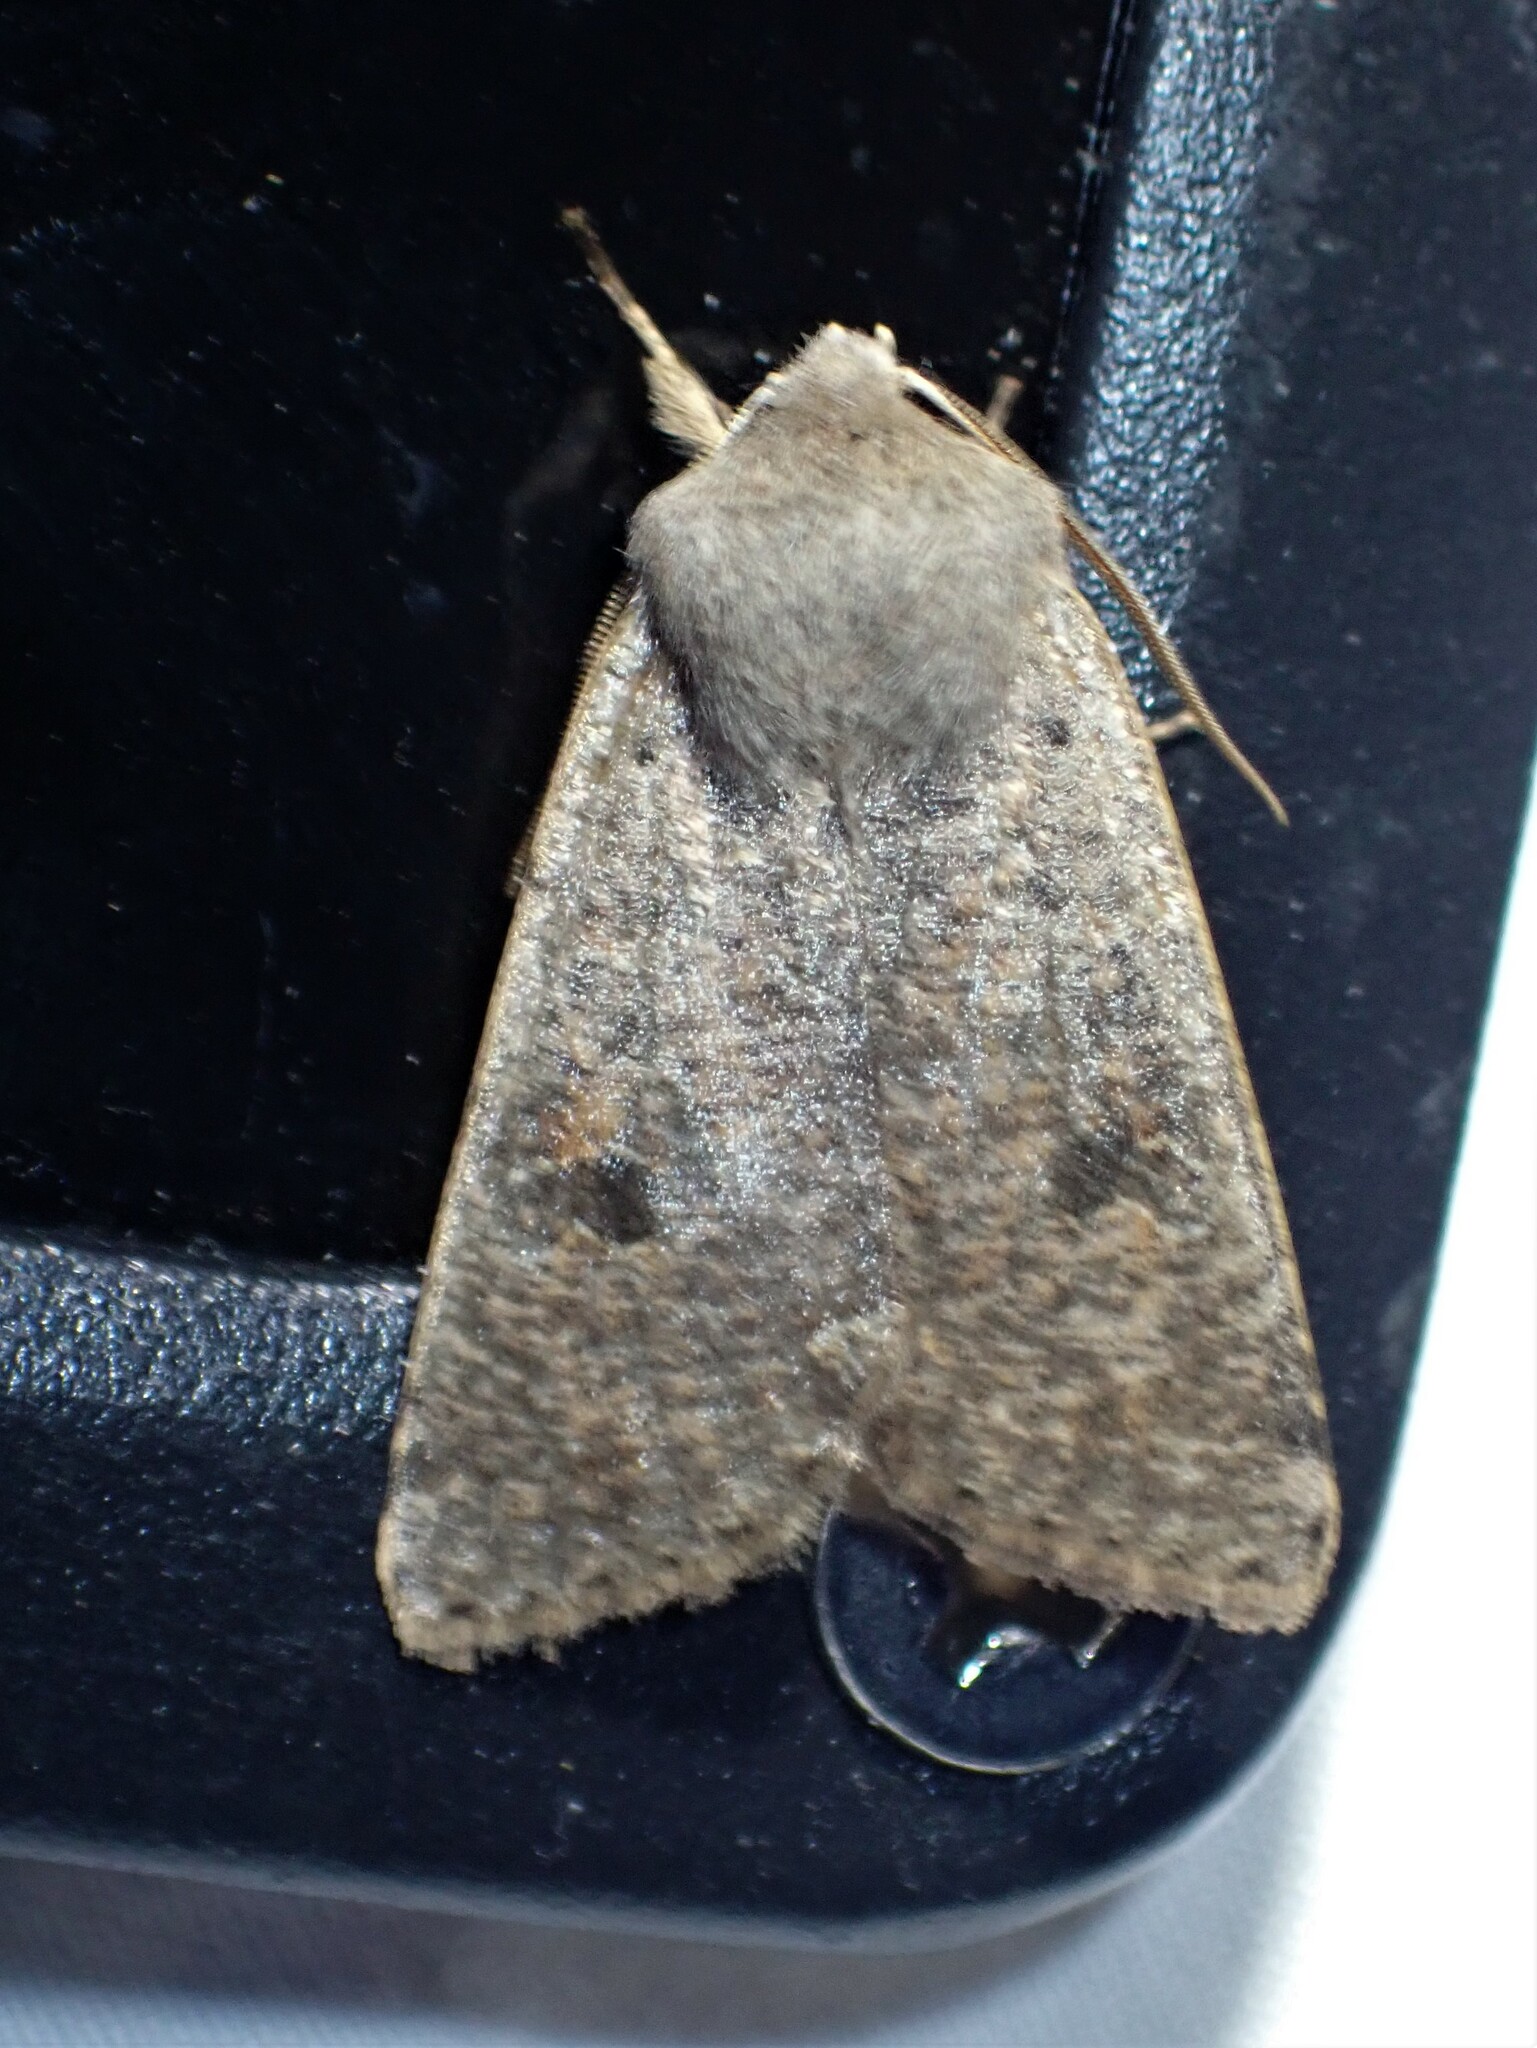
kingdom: Animalia
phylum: Arthropoda
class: Insecta
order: Lepidoptera
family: Noctuidae
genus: Orthosia
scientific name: Orthosia hibisci
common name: Green fruitworm
